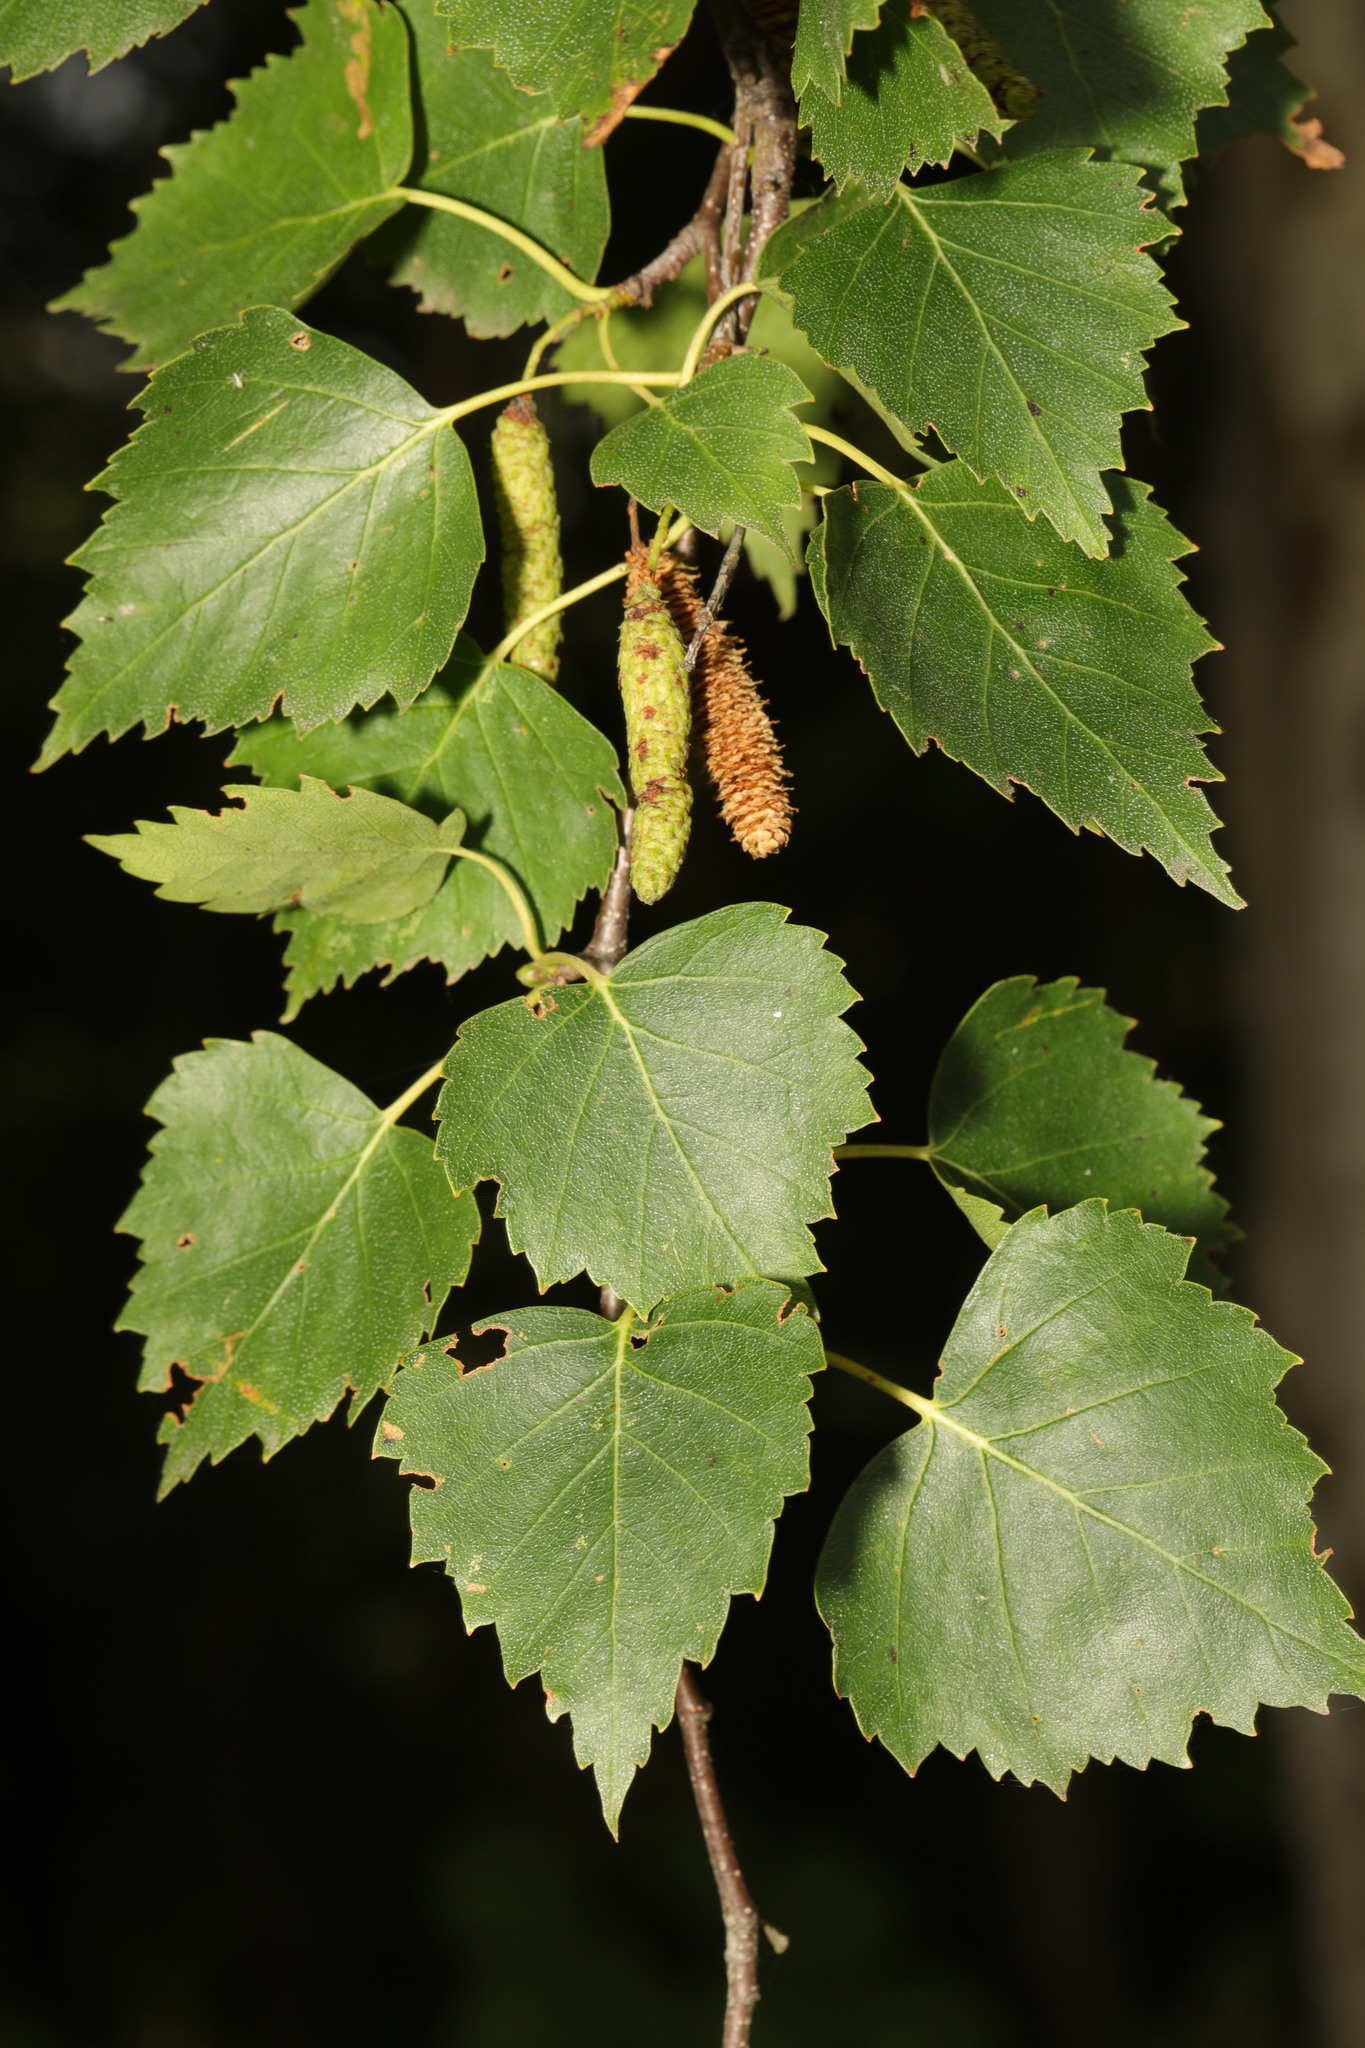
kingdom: Plantae
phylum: Tracheophyta
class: Magnoliopsida
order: Fagales
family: Betulaceae
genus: Betula
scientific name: Betula pendula
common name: Silver birch
